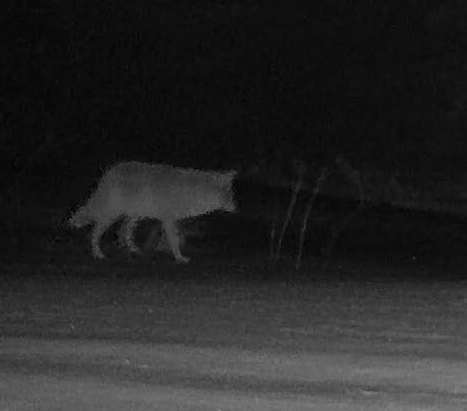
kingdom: Animalia
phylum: Chordata
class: Mammalia
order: Carnivora
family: Canidae
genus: Canis
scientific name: Canis latrans
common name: Coyote
